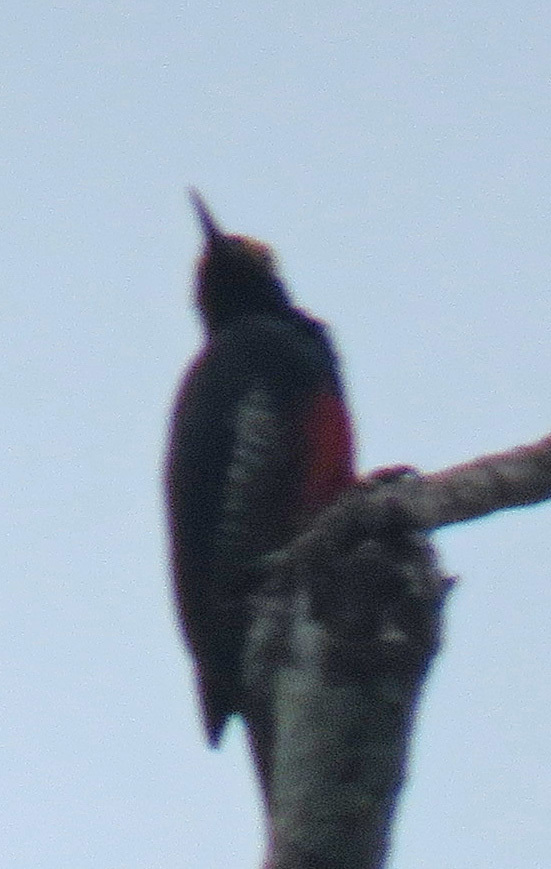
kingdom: Animalia
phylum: Chordata
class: Aves
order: Piciformes
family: Picidae
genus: Melanerpes
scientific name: Melanerpes cruentatus
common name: Yellow-tufted woodpecker
